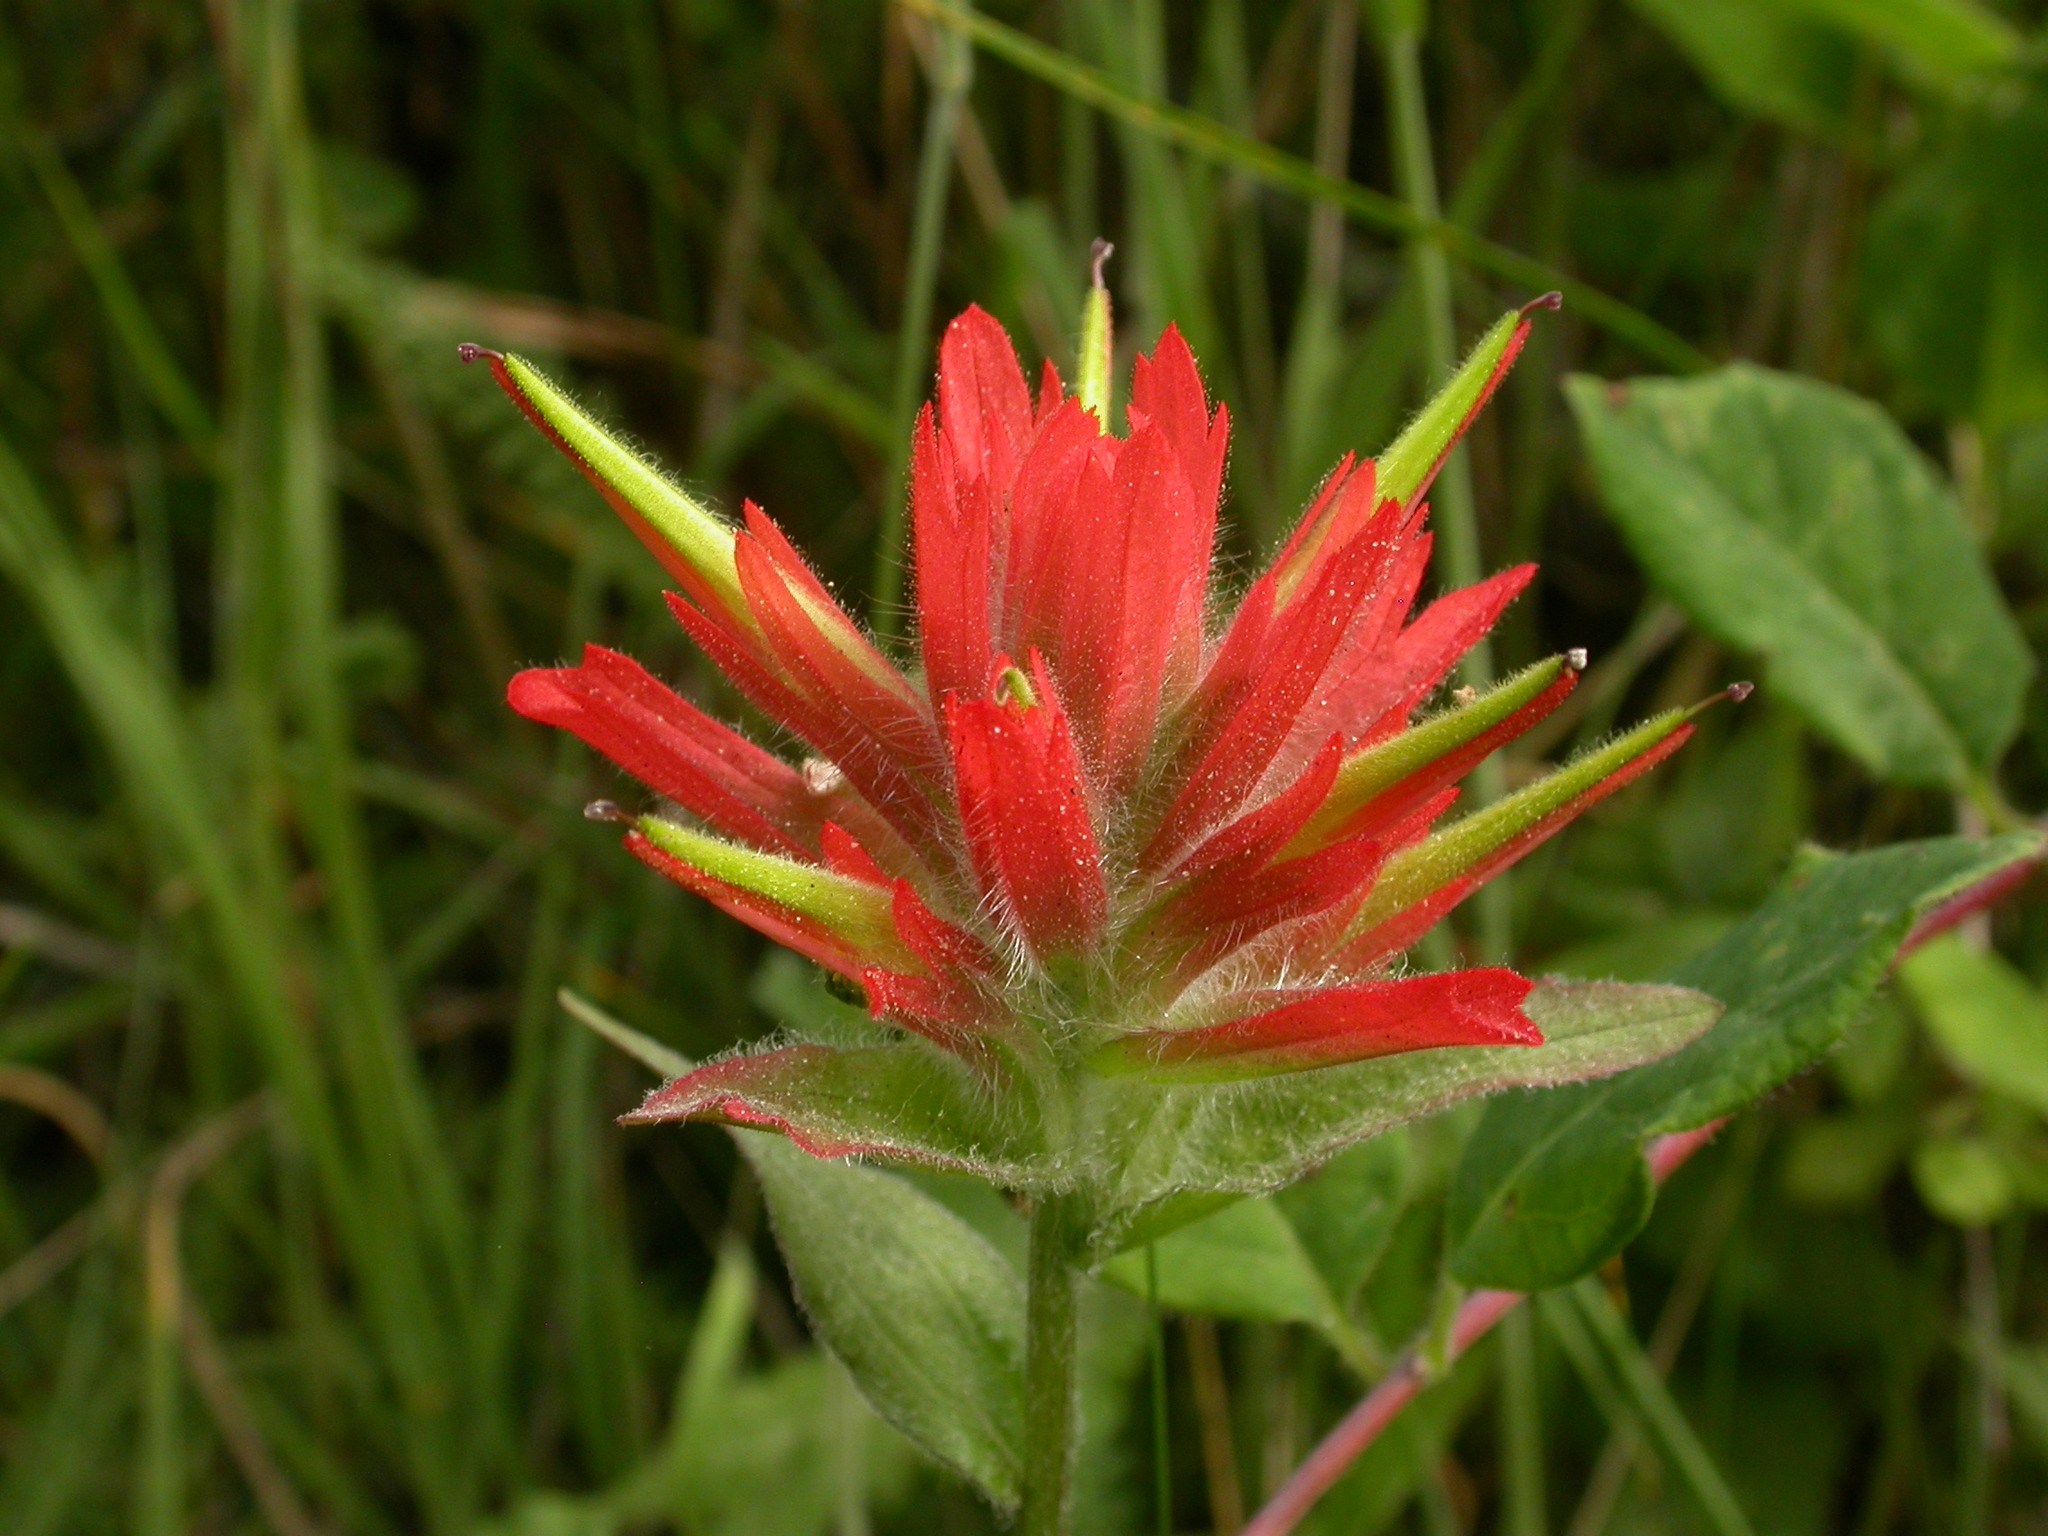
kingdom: Plantae
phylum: Tracheophyta
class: Magnoliopsida
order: Lamiales
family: Orobanchaceae
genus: Castilleja
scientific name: Castilleja miniata
